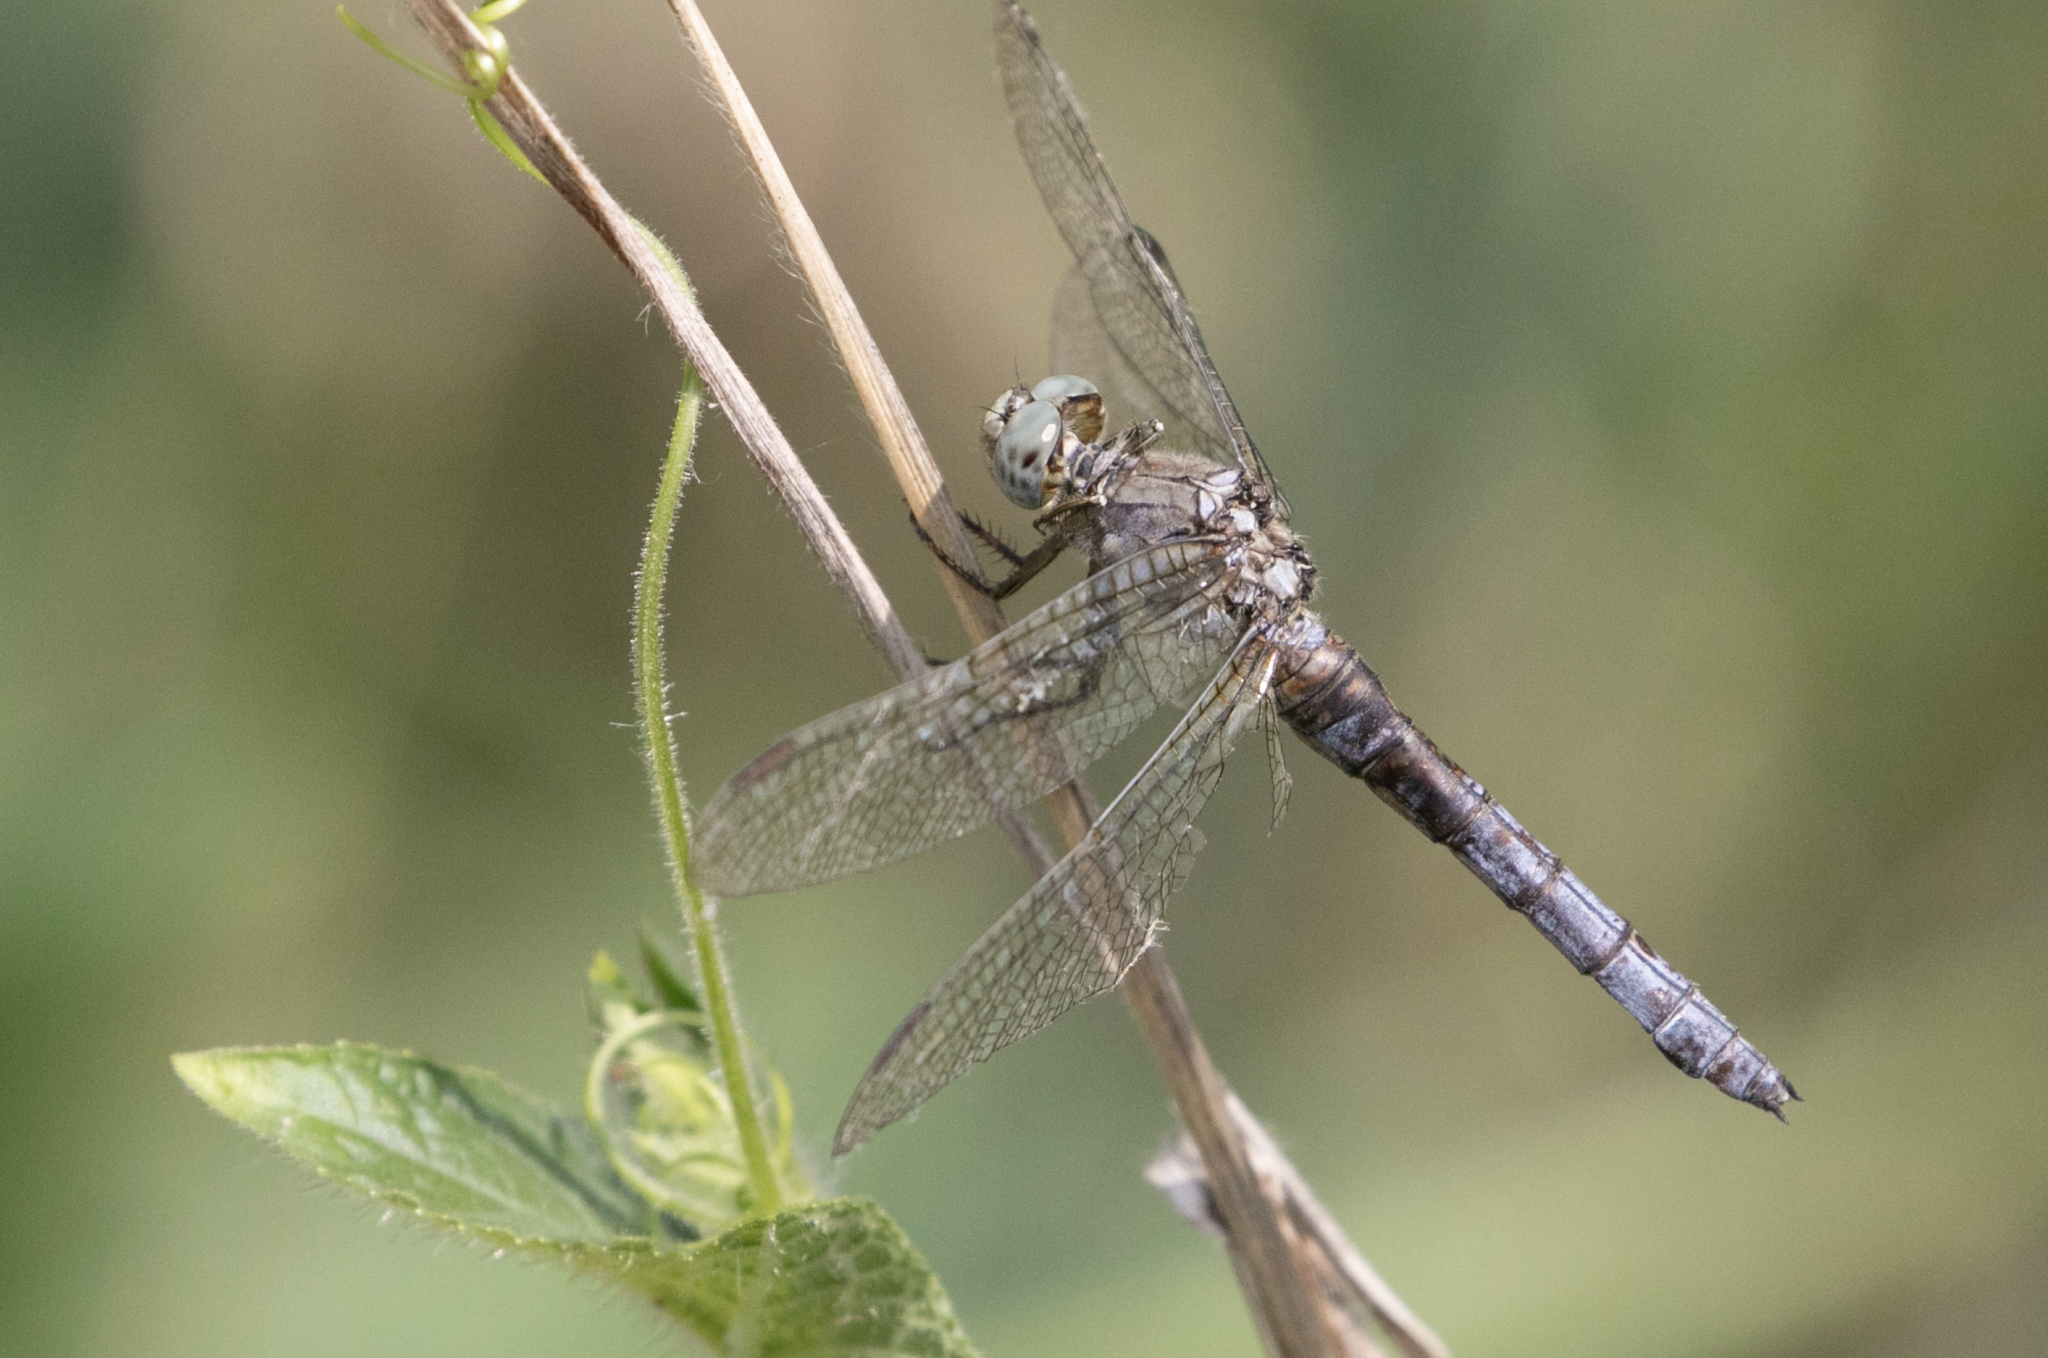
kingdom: Animalia
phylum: Arthropoda
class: Insecta
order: Odonata
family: Libellulidae
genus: Orthetrum
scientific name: Orthetrum coerulescens
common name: Keeled skimmer
